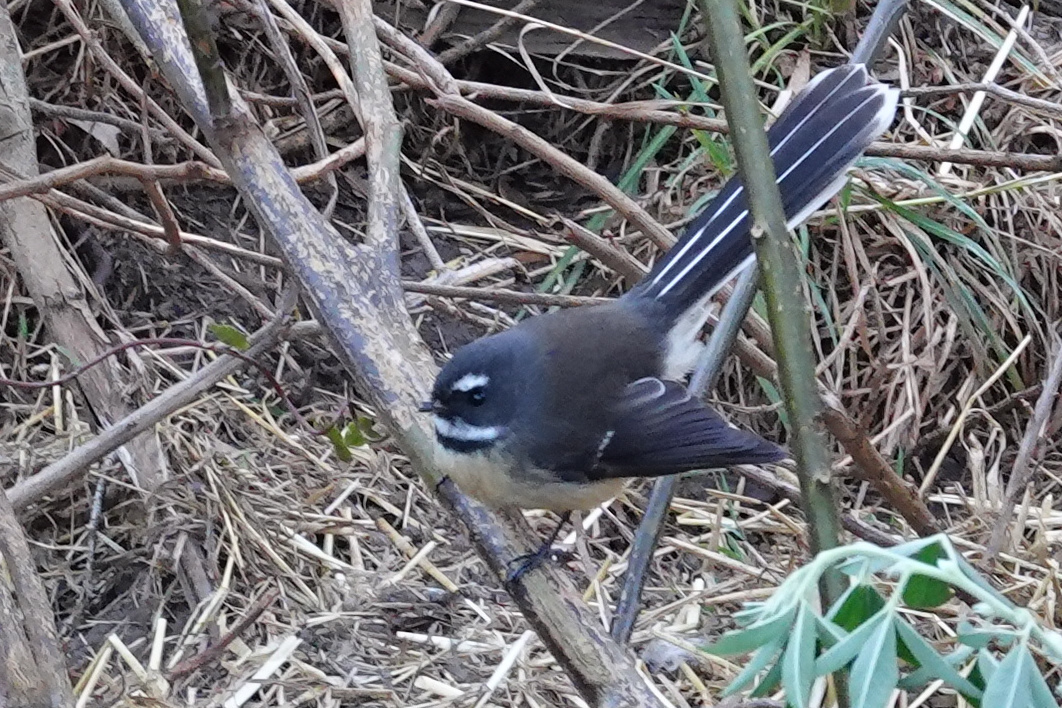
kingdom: Animalia
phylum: Chordata
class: Aves
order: Passeriformes
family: Rhipiduridae
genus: Rhipidura
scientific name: Rhipidura fuliginosa
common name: New zealand fantail
